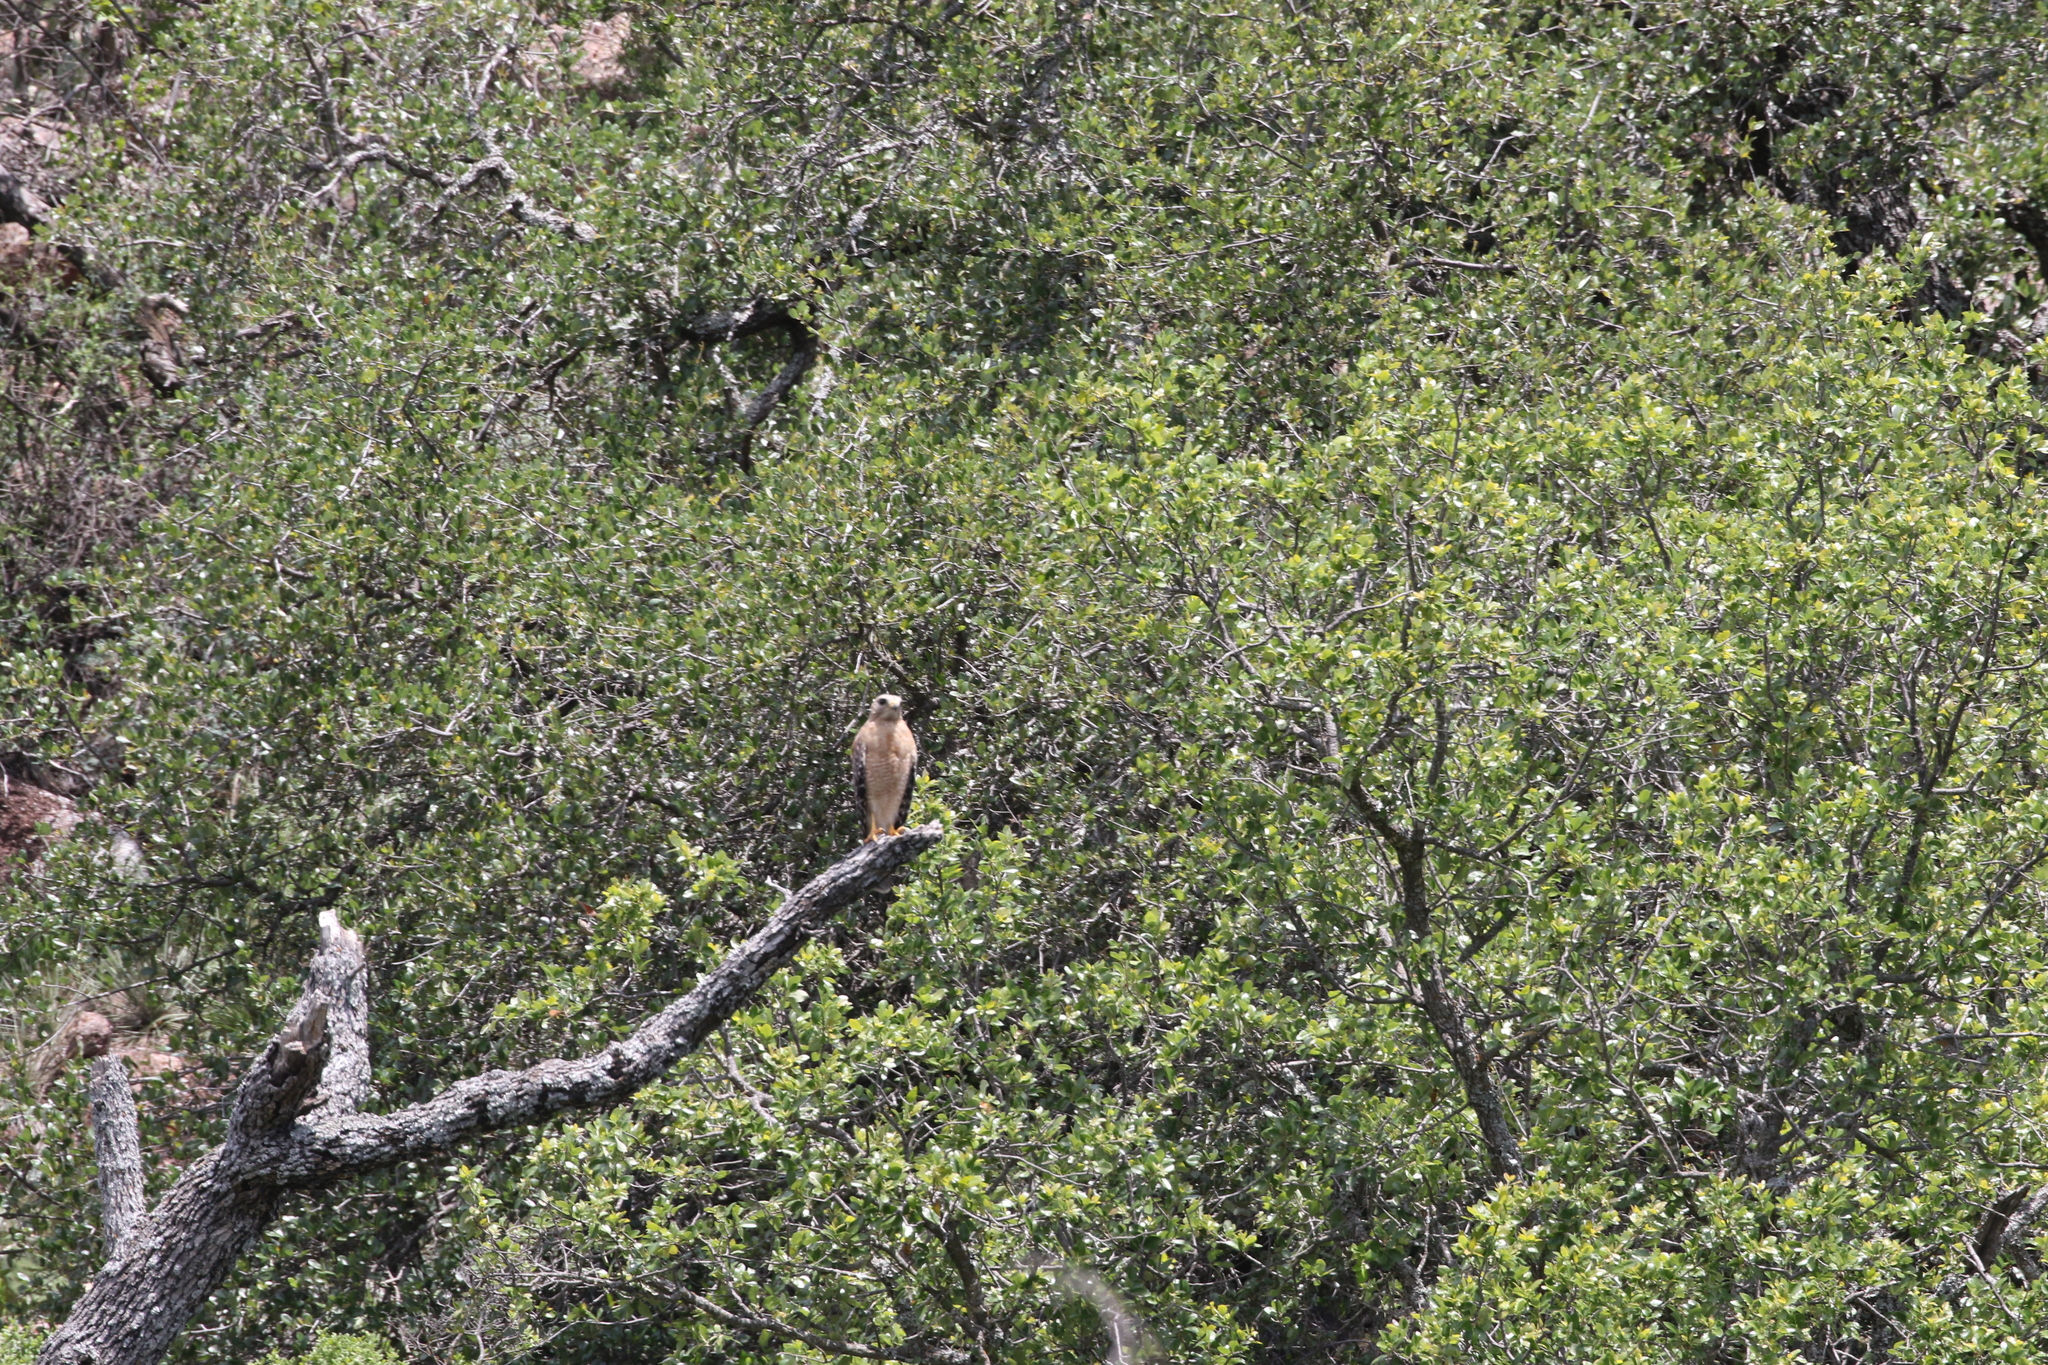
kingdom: Animalia
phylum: Chordata
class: Aves
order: Accipitriformes
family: Accipitridae
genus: Buteo
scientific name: Buteo lineatus
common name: Red-shouldered hawk
